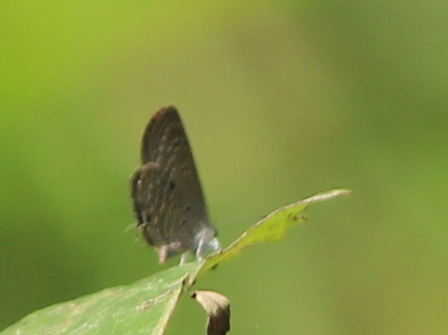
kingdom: Animalia
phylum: Arthropoda
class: Insecta
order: Lepidoptera
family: Lycaenidae
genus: Luthrodes
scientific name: Luthrodes pandava
